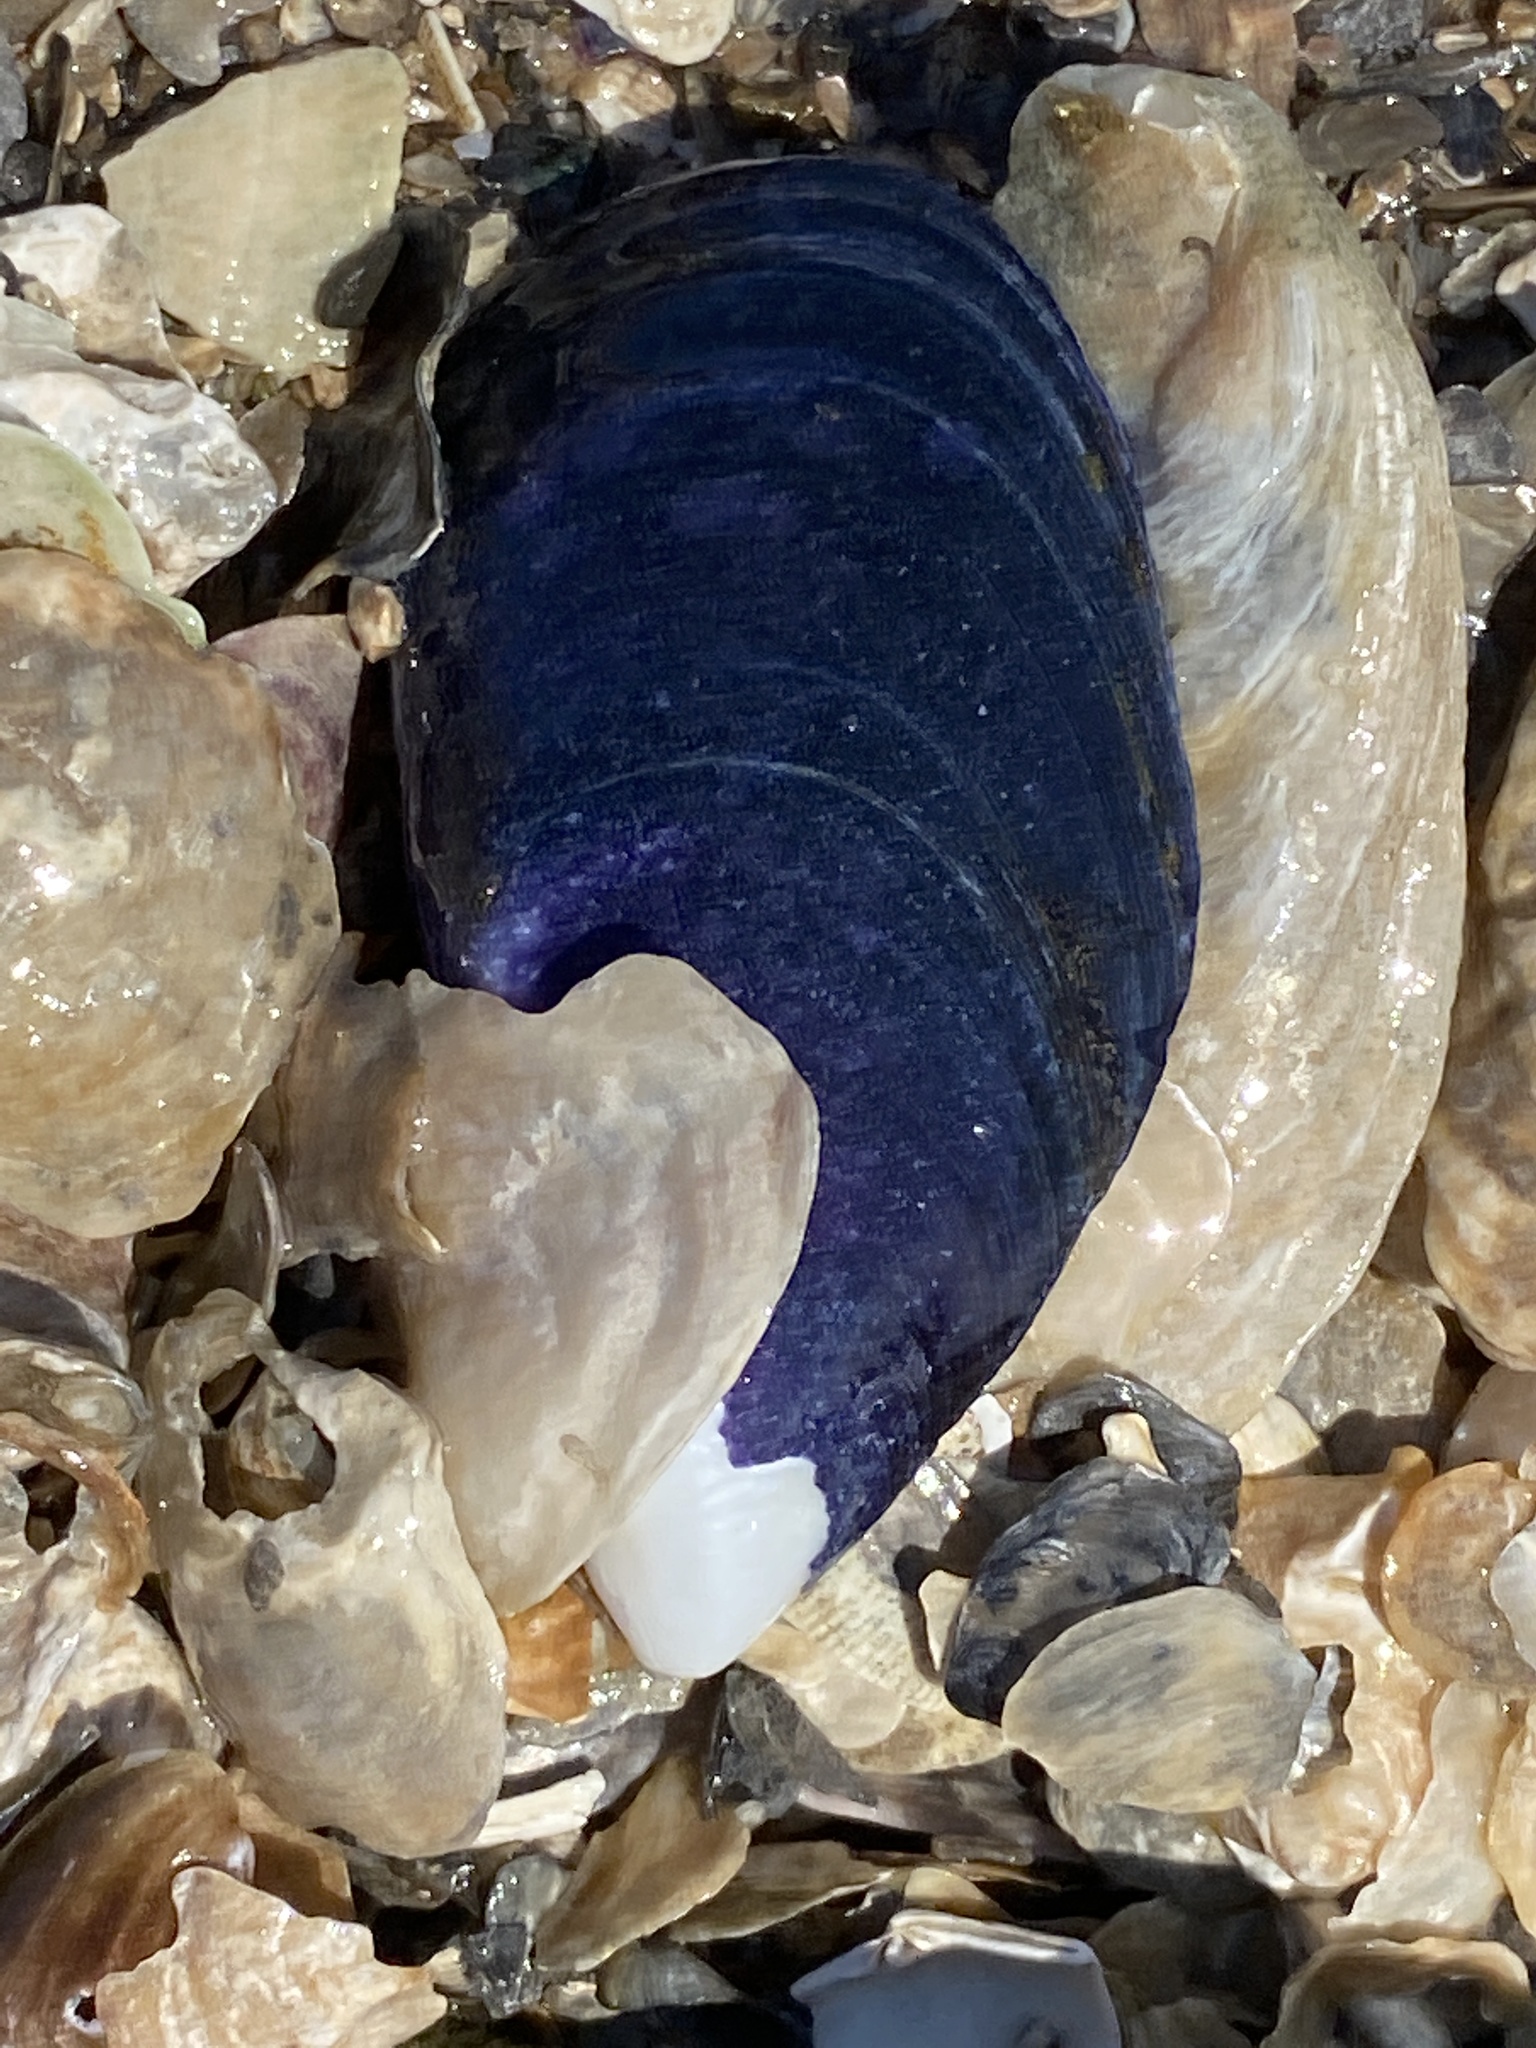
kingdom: Animalia
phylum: Mollusca
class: Bivalvia
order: Mytilida
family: Mytilidae
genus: Mytilus
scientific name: Mytilus
